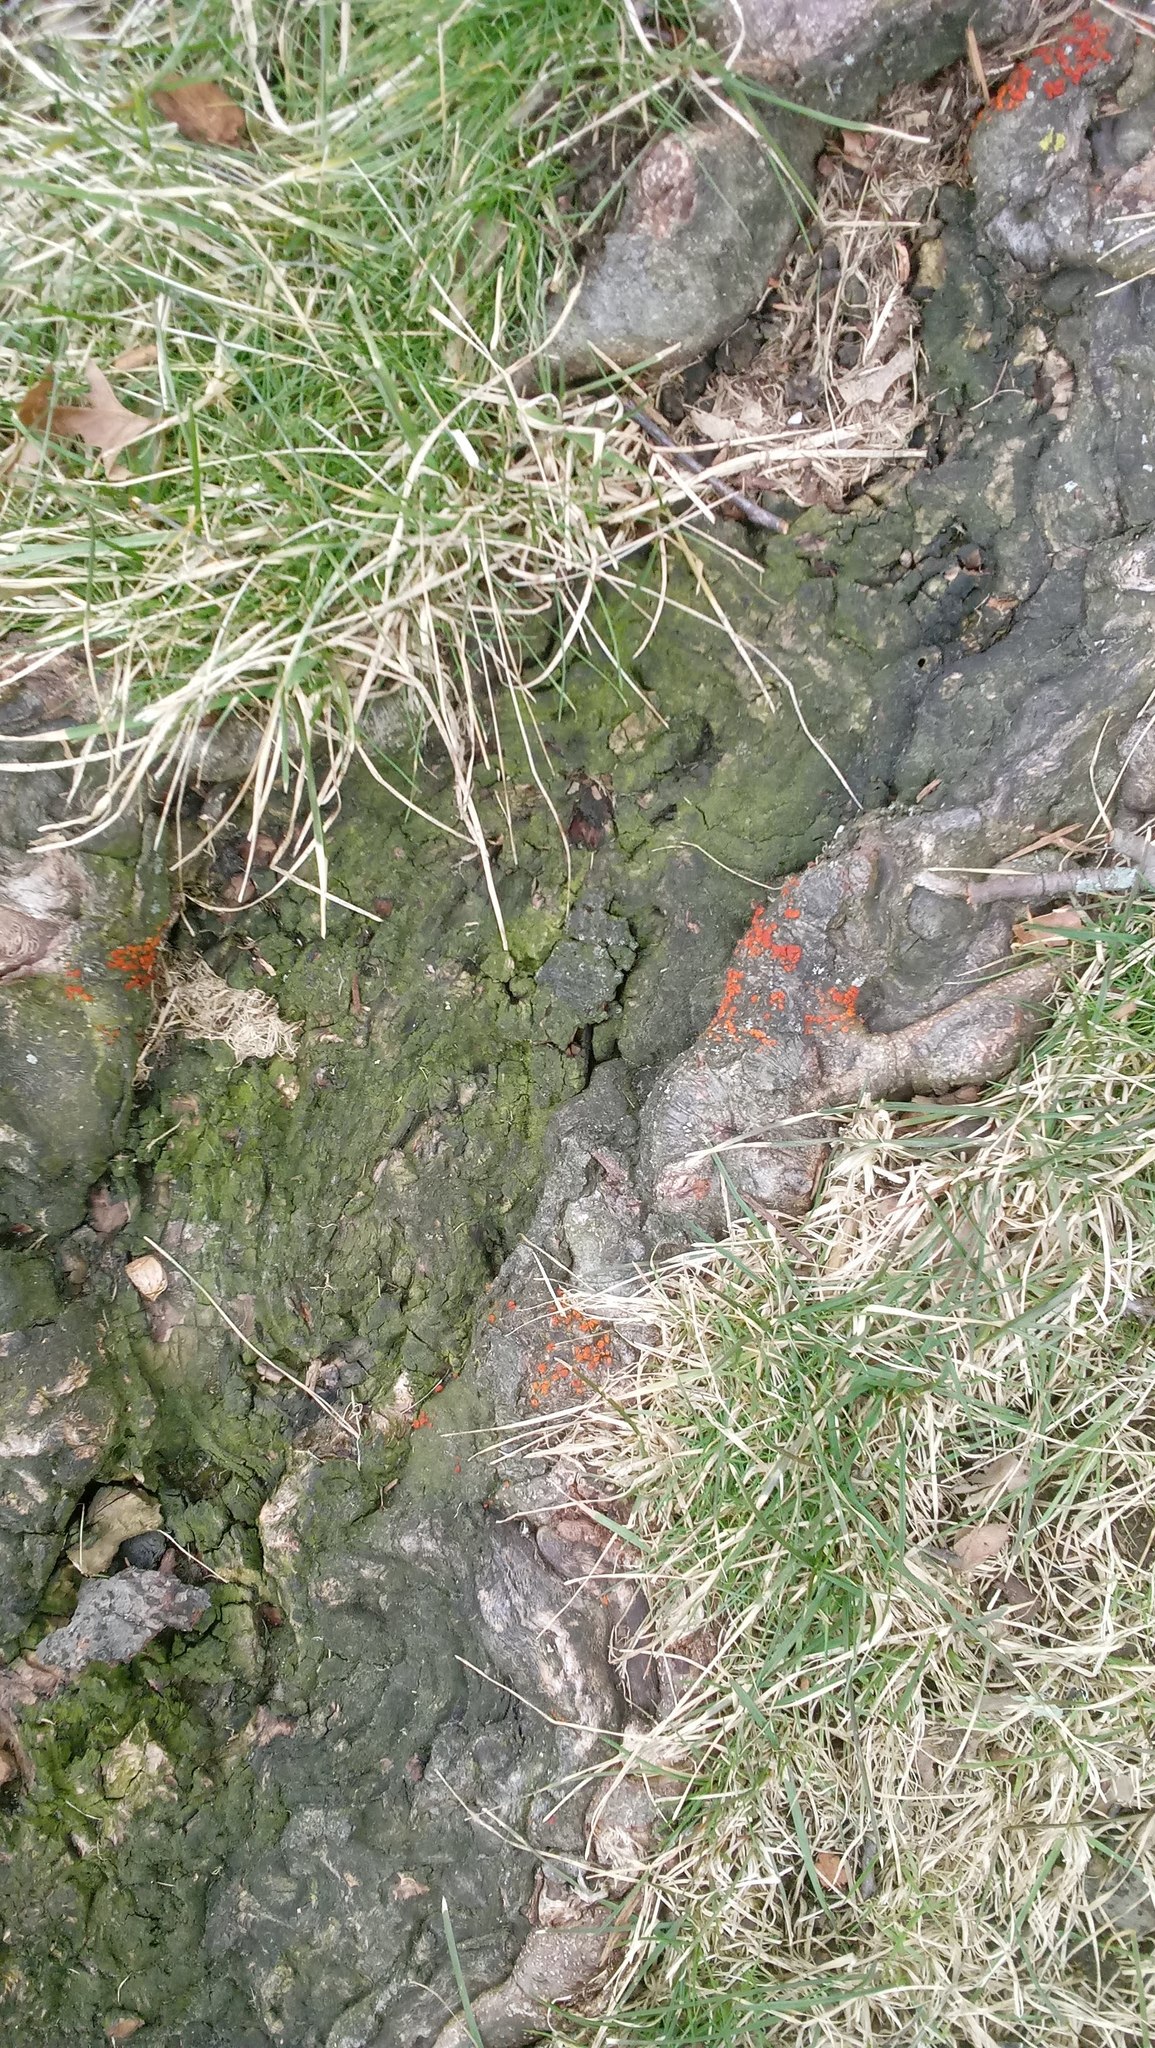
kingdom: Fungi
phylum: Ascomycota
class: Sordariomycetes
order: Hypocreales
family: Nectriaceae
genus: Nectria
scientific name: Nectria cinnabarina
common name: Coral spot
